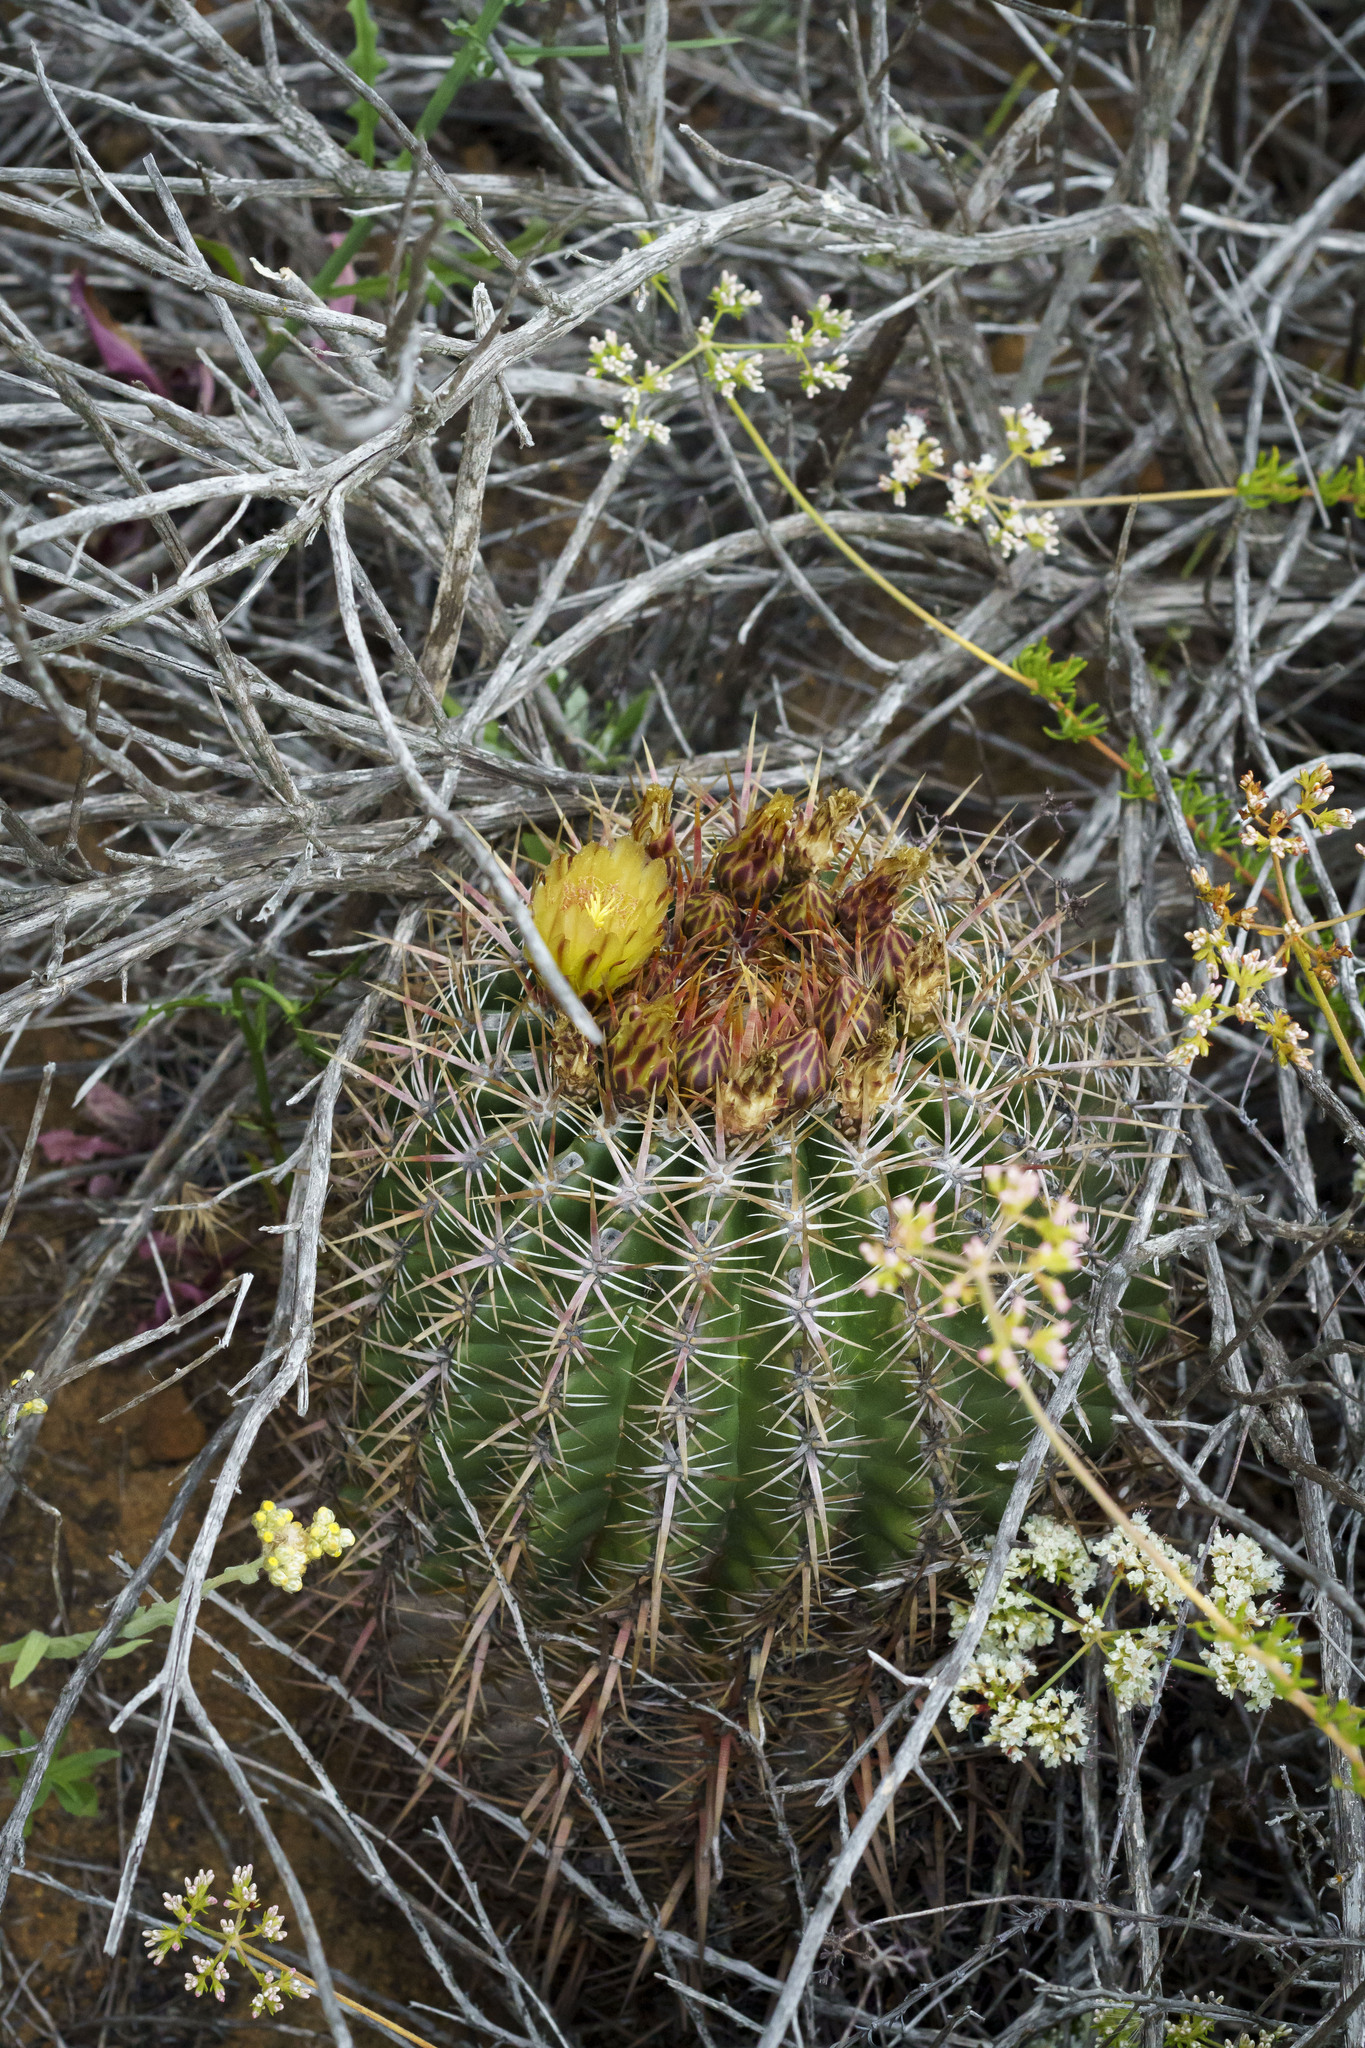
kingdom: Plantae
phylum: Tracheophyta
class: Magnoliopsida
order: Caryophyllales
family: Cactaceae
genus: Ferocactus
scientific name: Ferocactus viridescens
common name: San diego barrel cactus
